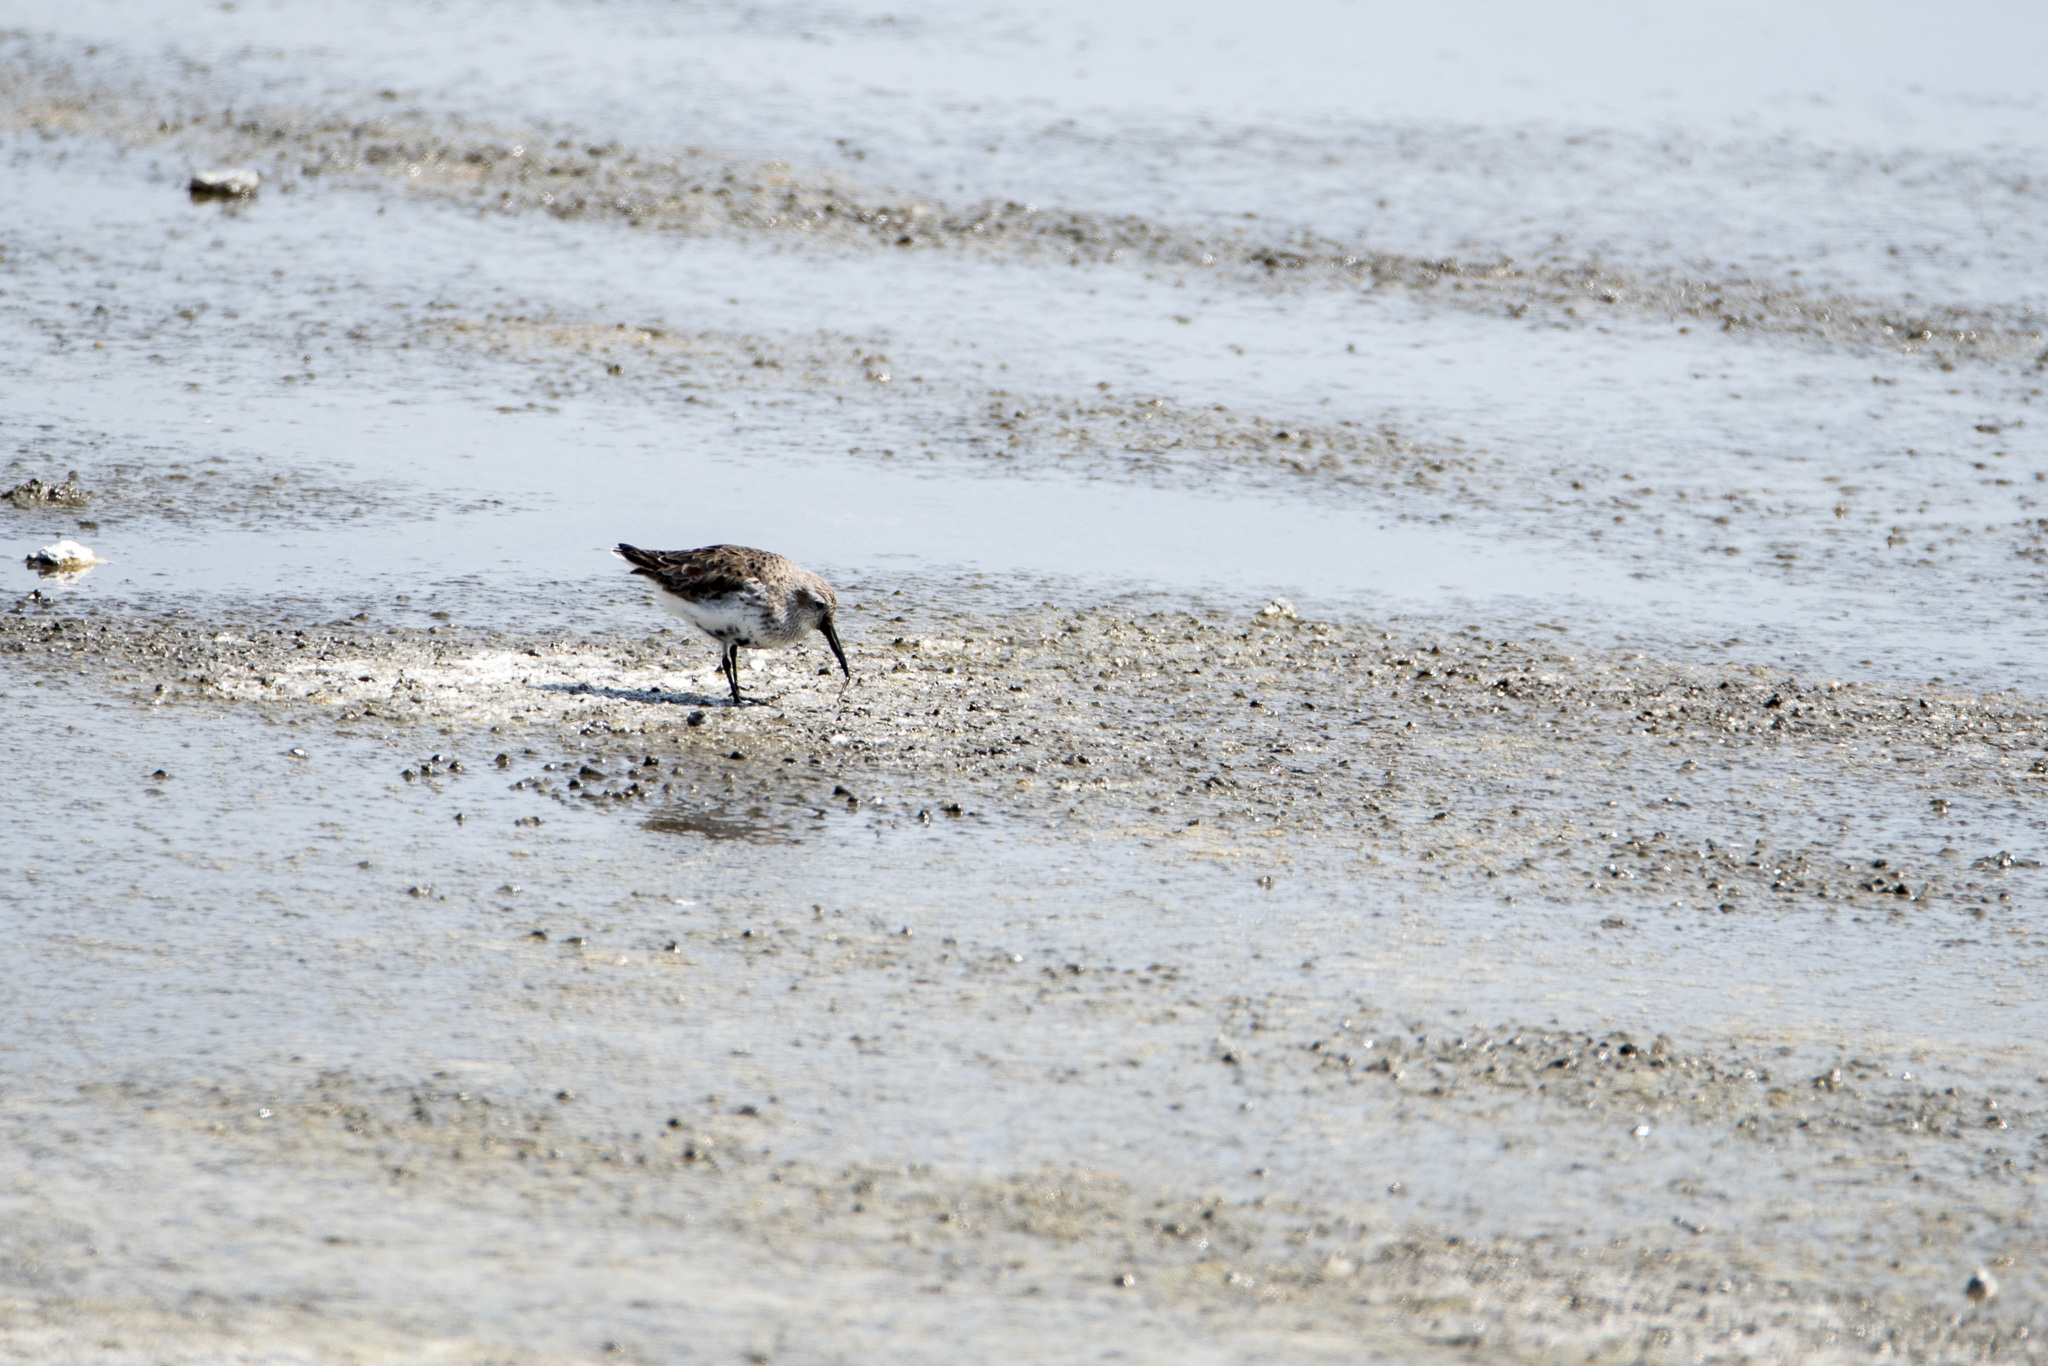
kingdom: Animalia
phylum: Chordata
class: Aves
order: Charadriiformes
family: Scolopacidae
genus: Calidris
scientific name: Calidris alpina
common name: Dunlin
